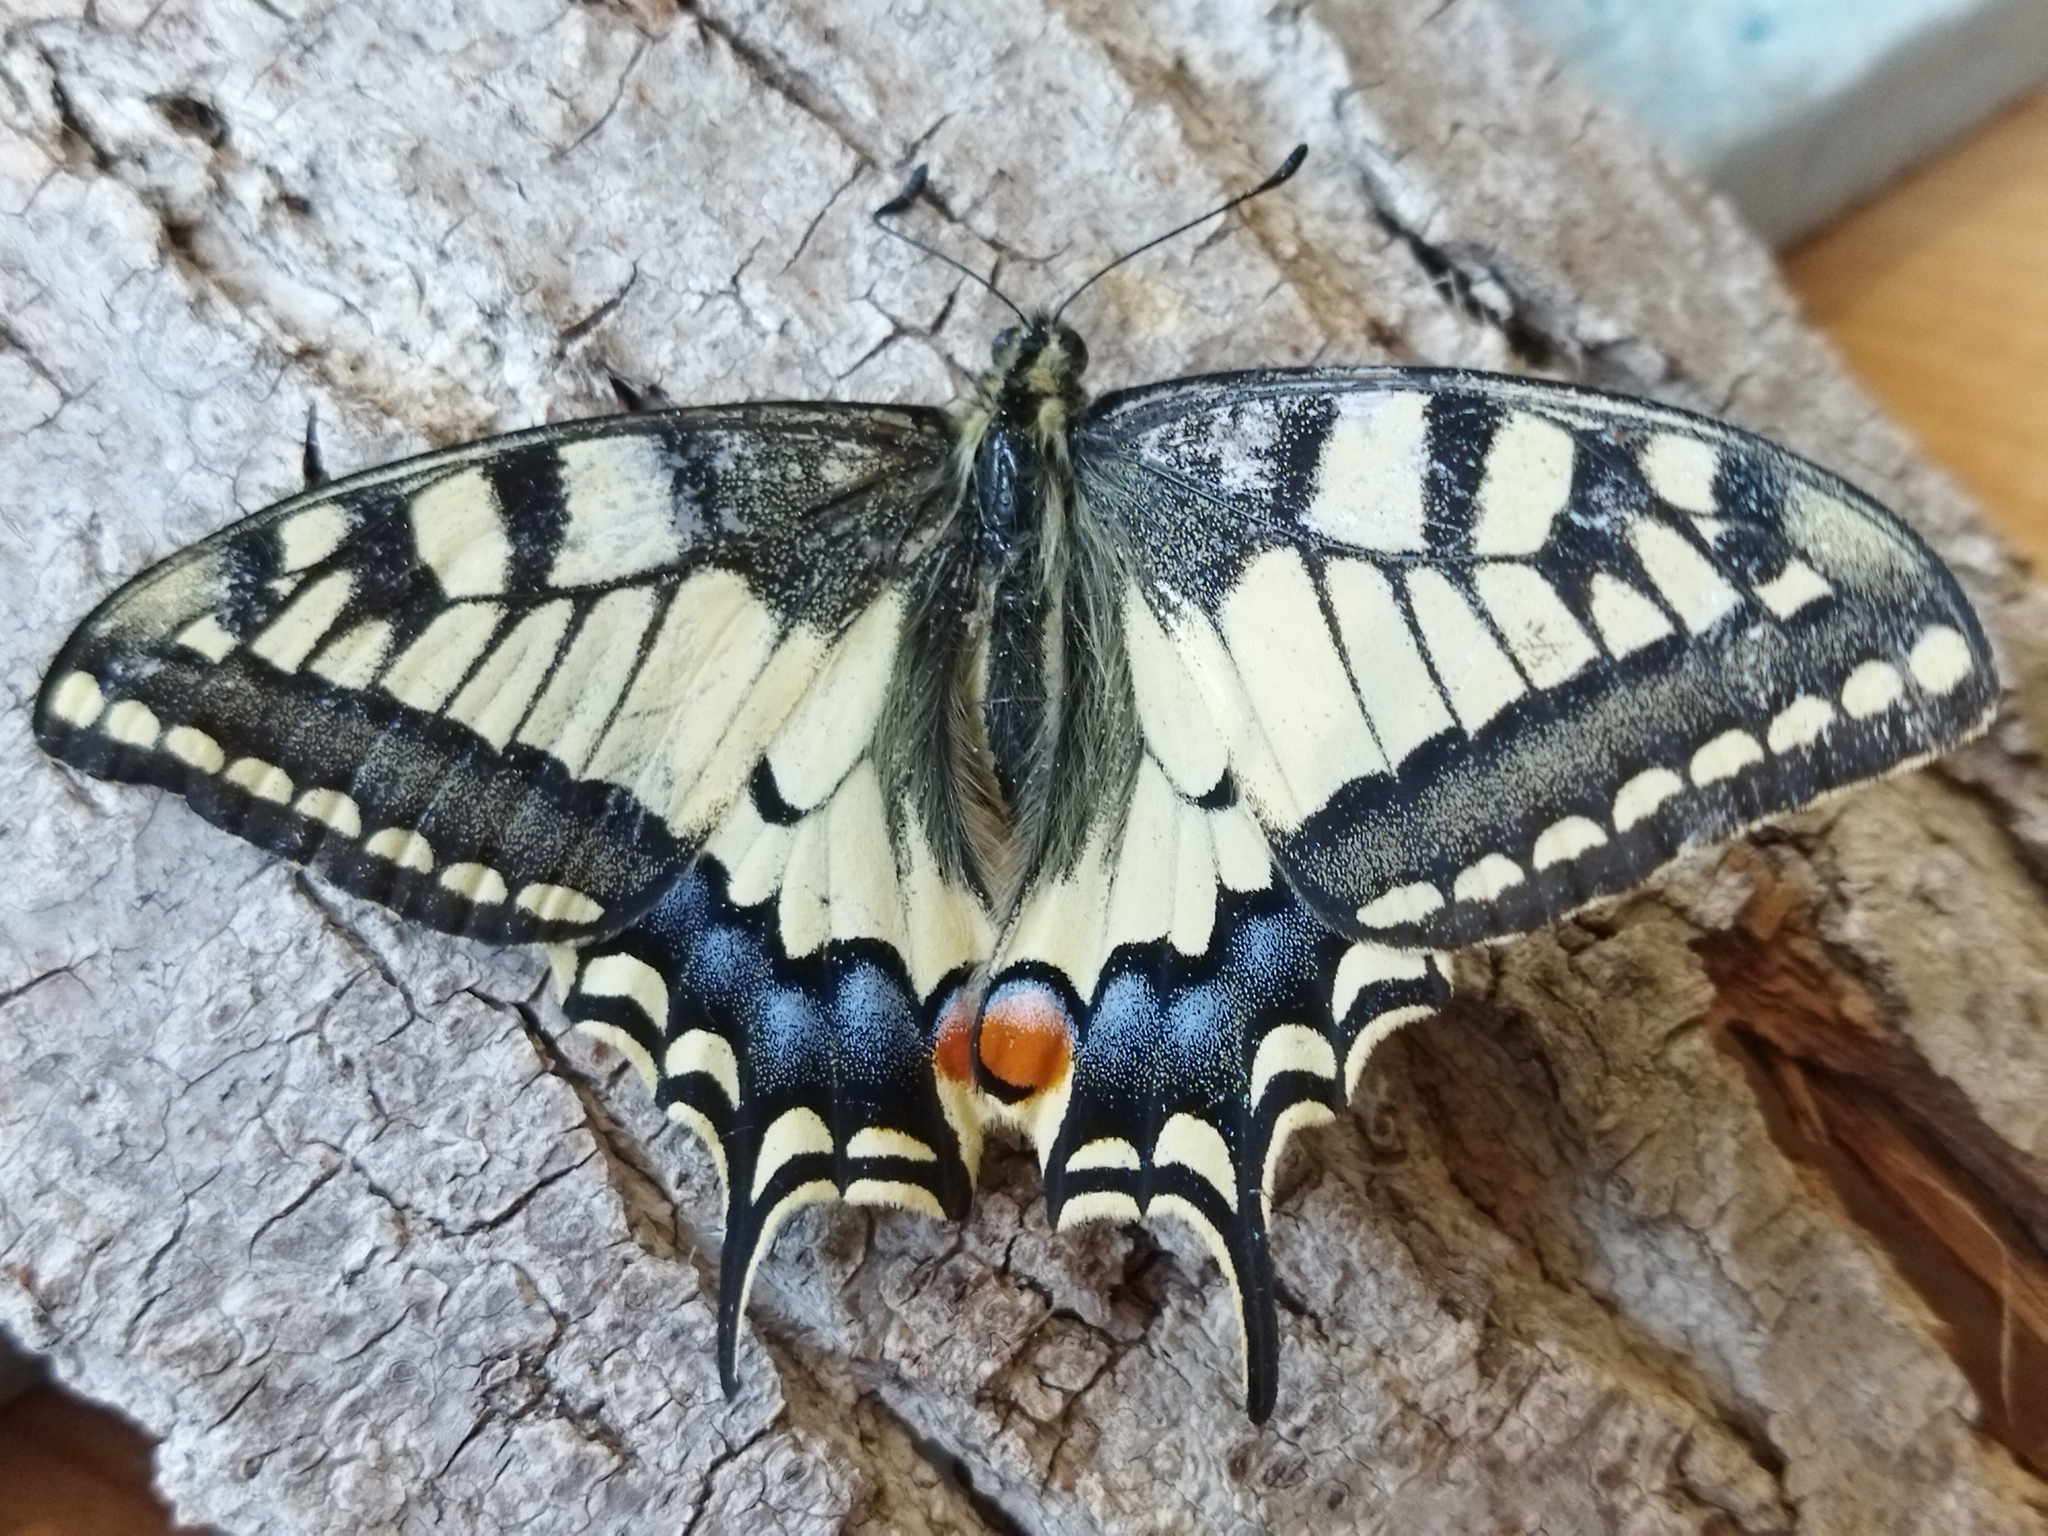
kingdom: Animalia
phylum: Arthropoda
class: Insecta
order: Lepidoptera
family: Papilionidae
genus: Papilio
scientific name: Papilio machaon
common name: Swallowtail
